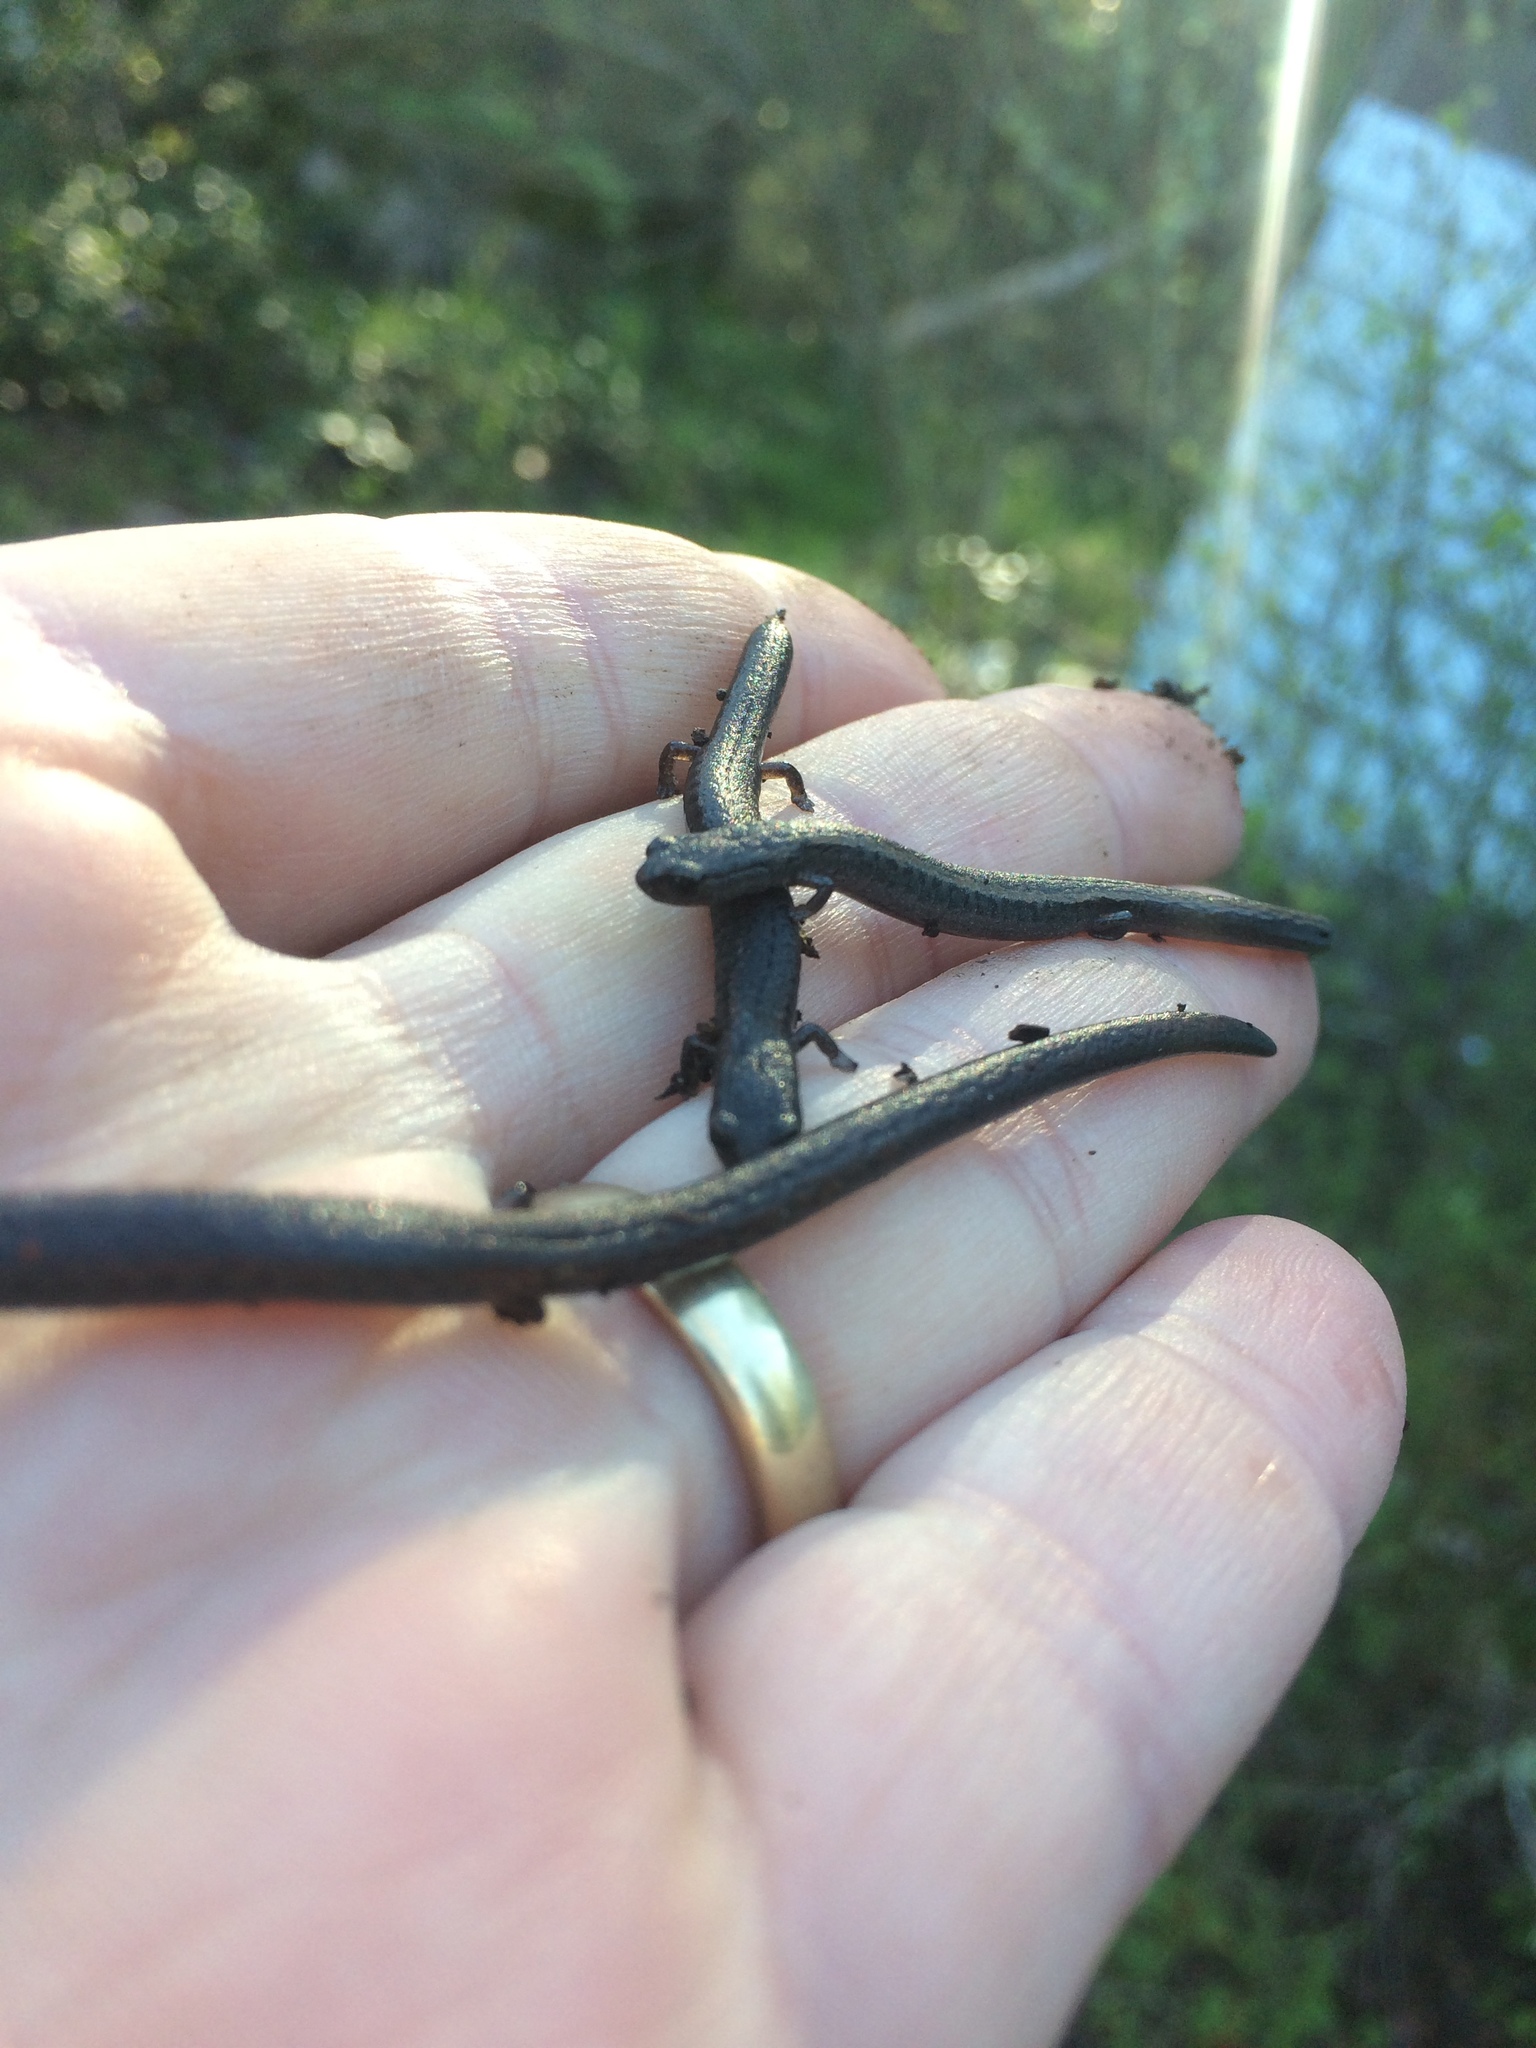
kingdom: Animalia
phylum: Chordata
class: Amphibia
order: Caudata
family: Plethodontidae
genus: Batrachoseps
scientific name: Batrachoseps attenuatus
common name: California slender salamander
